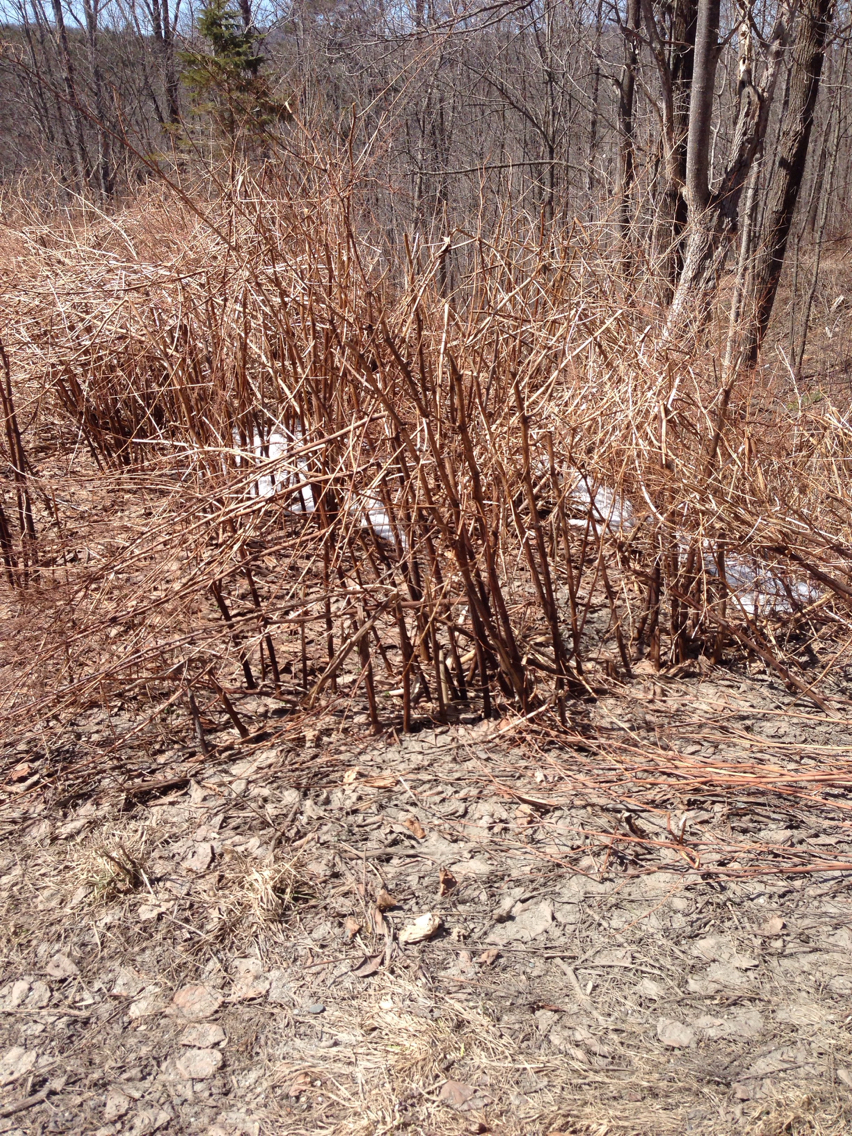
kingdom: Plantae
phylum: Tracheophyta
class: Magnoliopsida
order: Caryophyllales
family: Polygonaceae
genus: Reynoutria
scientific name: Reynoutria japonica
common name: Japanese knotweed
